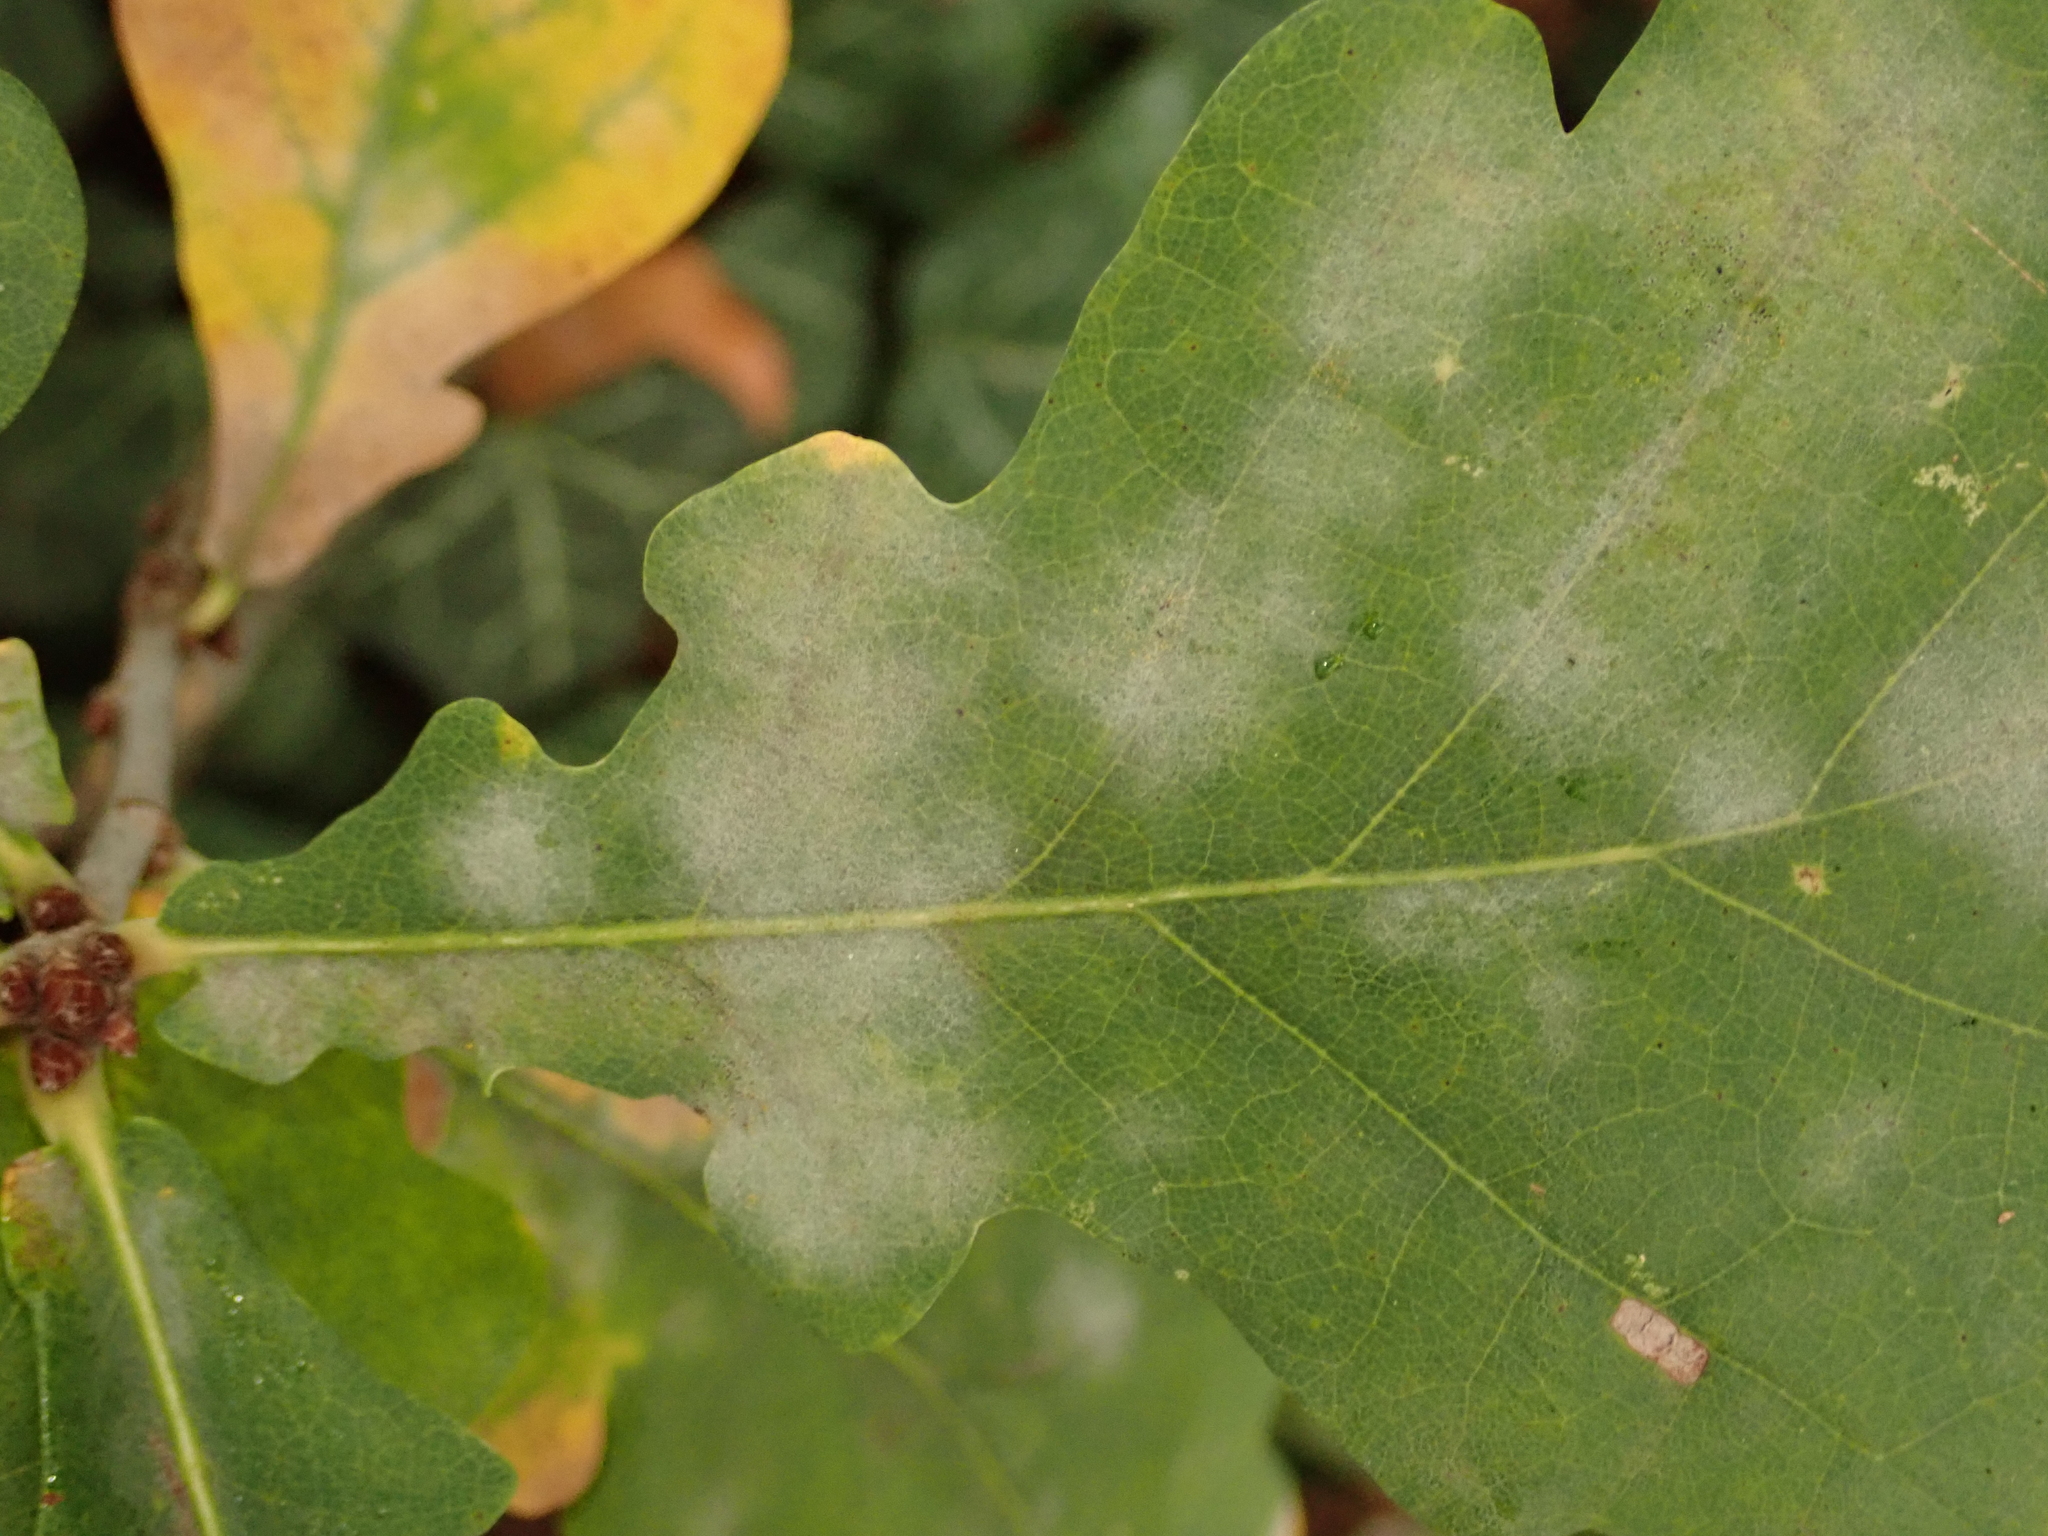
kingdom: Fungi
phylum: Ascomycota
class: Leotiomycetes
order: Helotiales
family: Erysiphaceae
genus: Erysiphe
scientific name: Erysiphe
